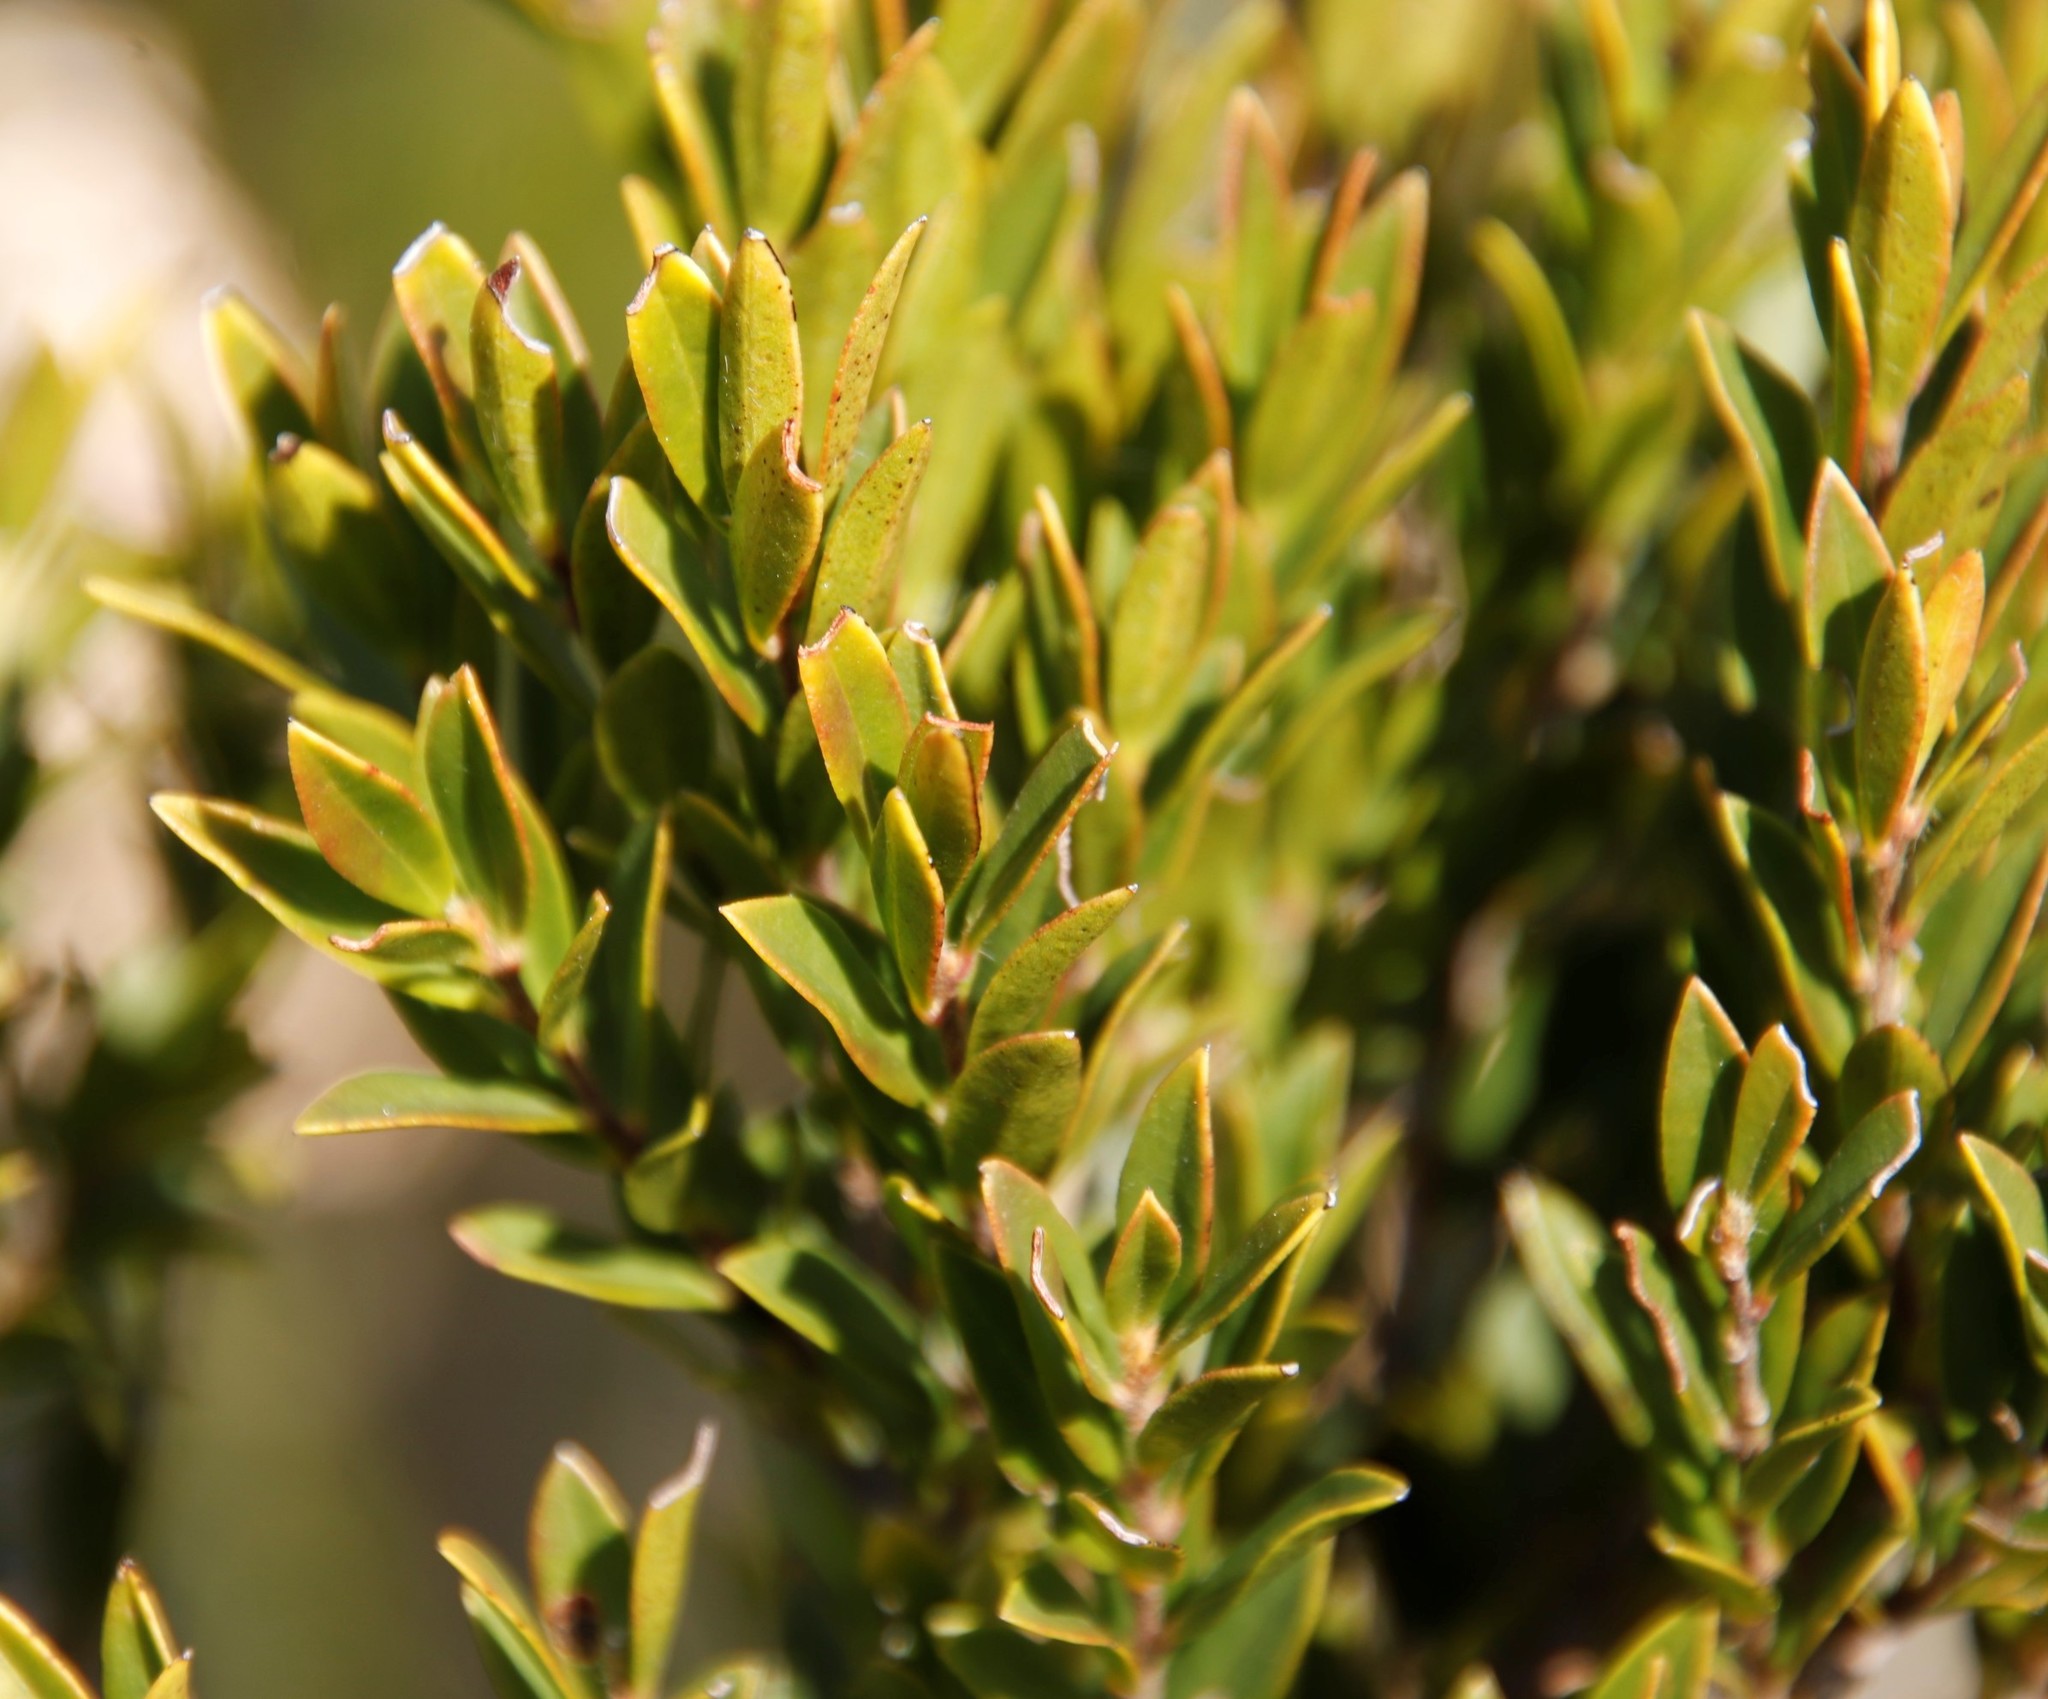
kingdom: Plantae
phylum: Tracheophyta
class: Magnoliopsida
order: Ericales
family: Ebenaceae
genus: Diospyros
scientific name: Diospyros glabra
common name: Fynbos star apple
